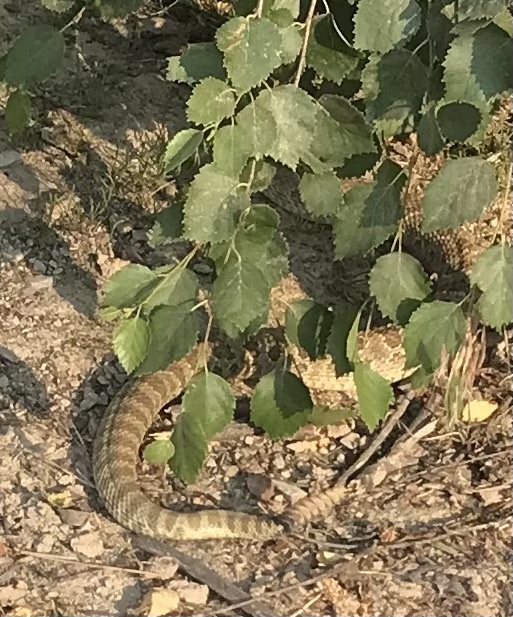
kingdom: Animalia
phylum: Chordata
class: Squamata
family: Viperidae
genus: Crotalus
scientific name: Crotalus viridis
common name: Prairie rattlesnake
